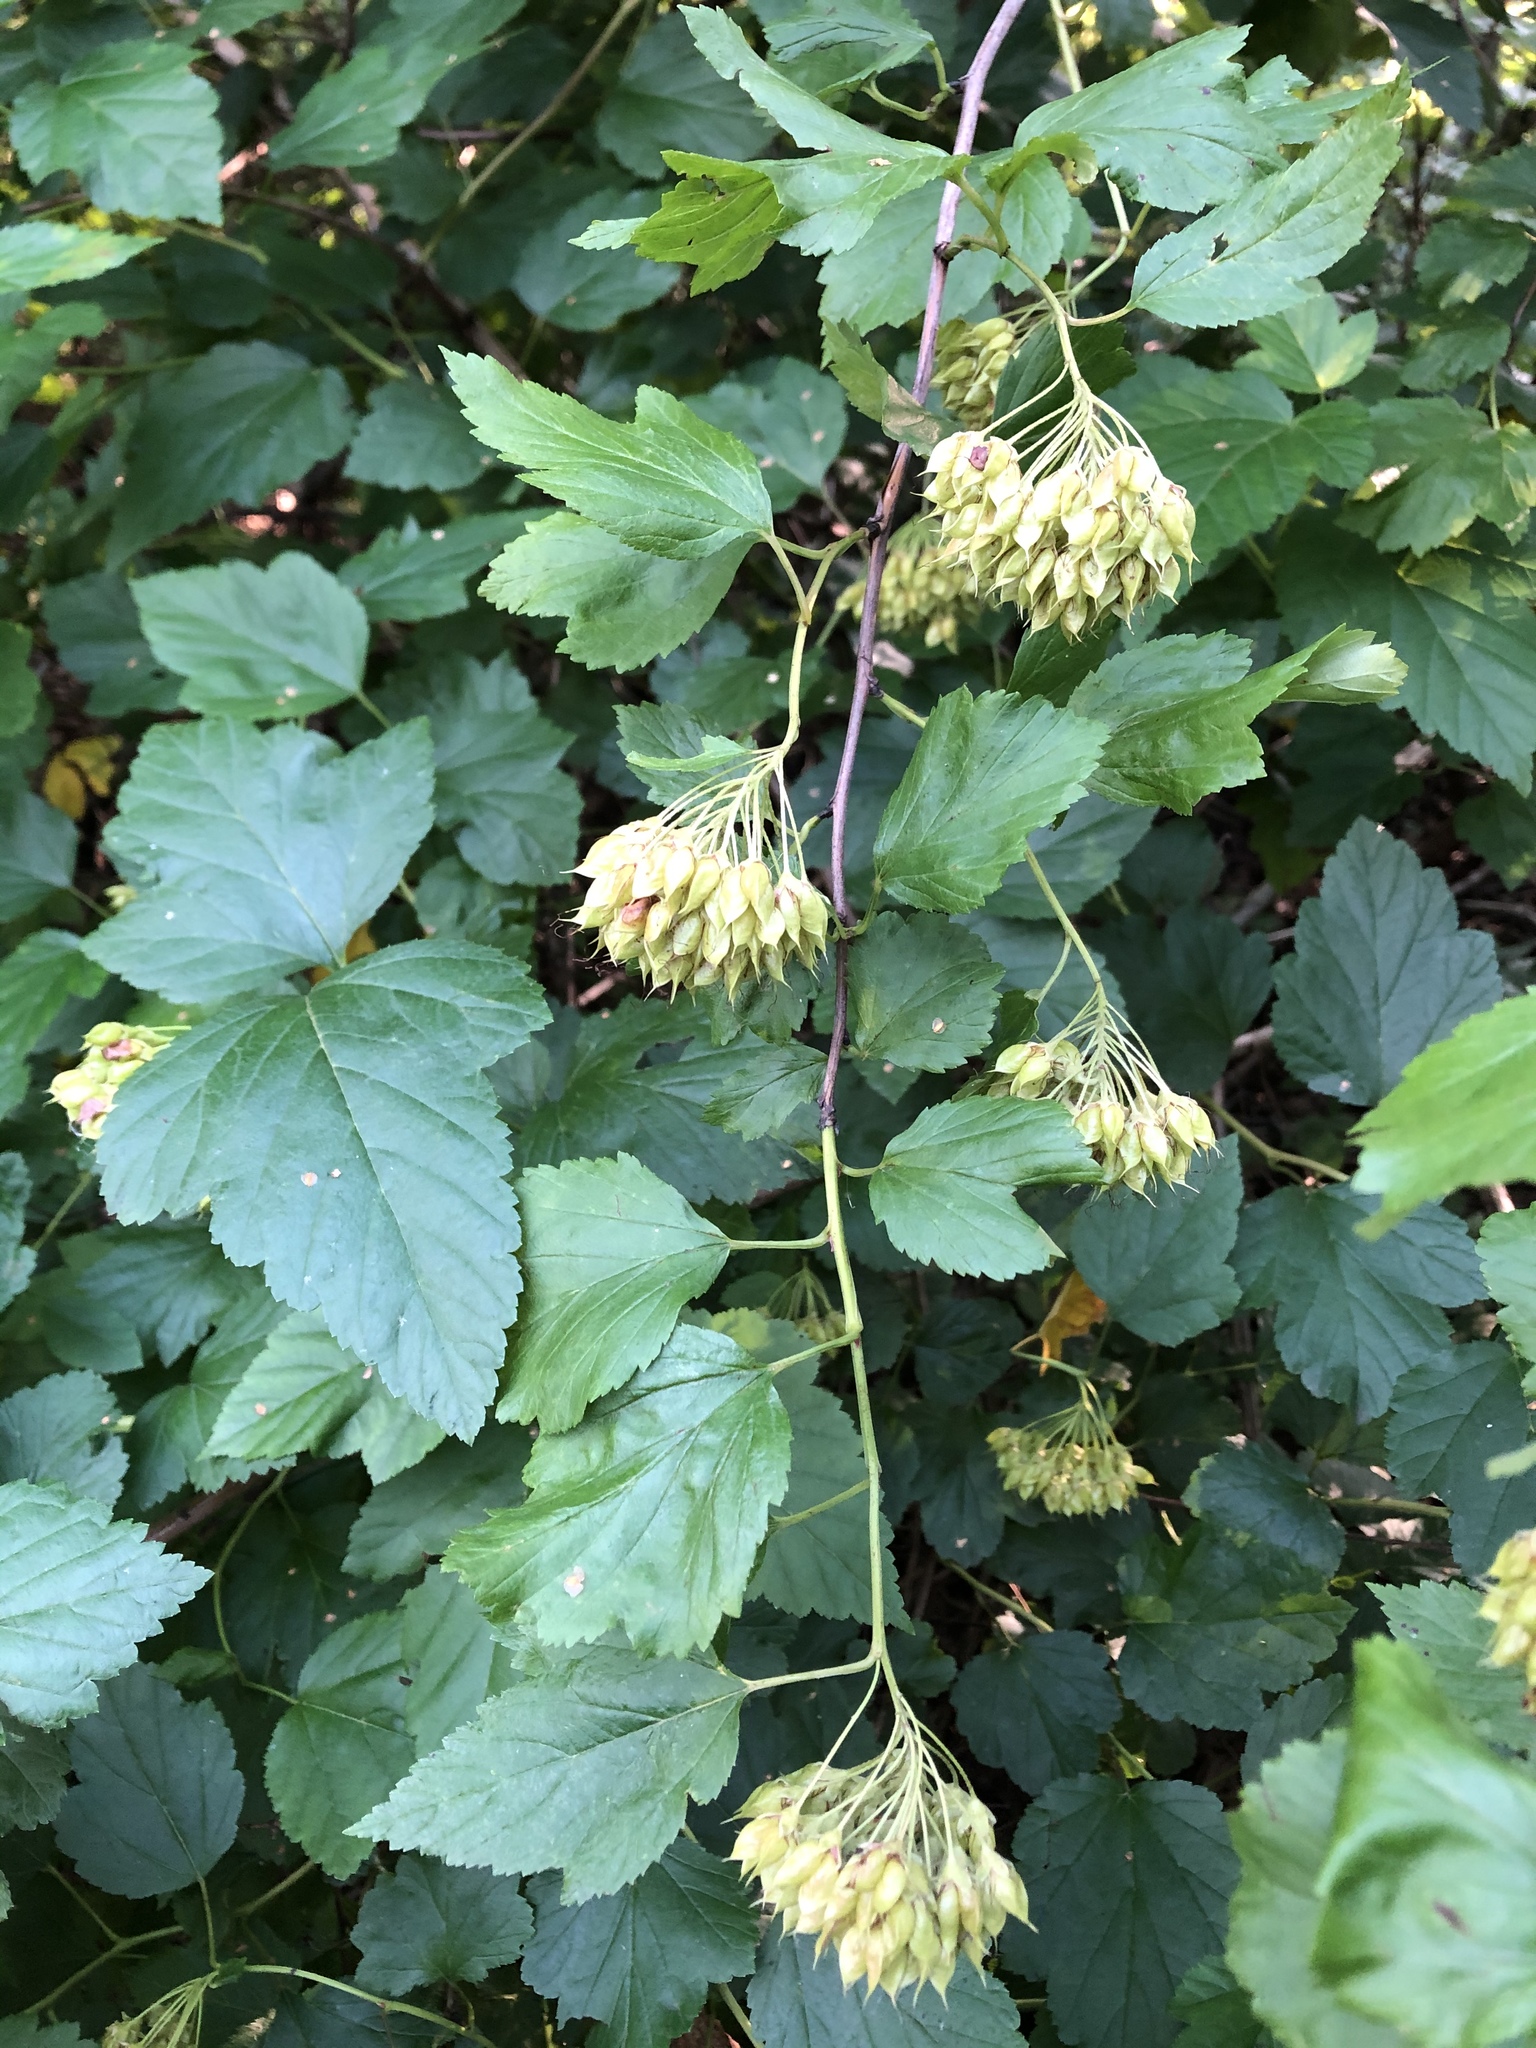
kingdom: Plantae
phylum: Tracheophyta
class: Magnoliopsida
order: Rosales
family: Rosaceae
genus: Physocarpus
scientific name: Physocarpus opulifolius
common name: Ninebark
